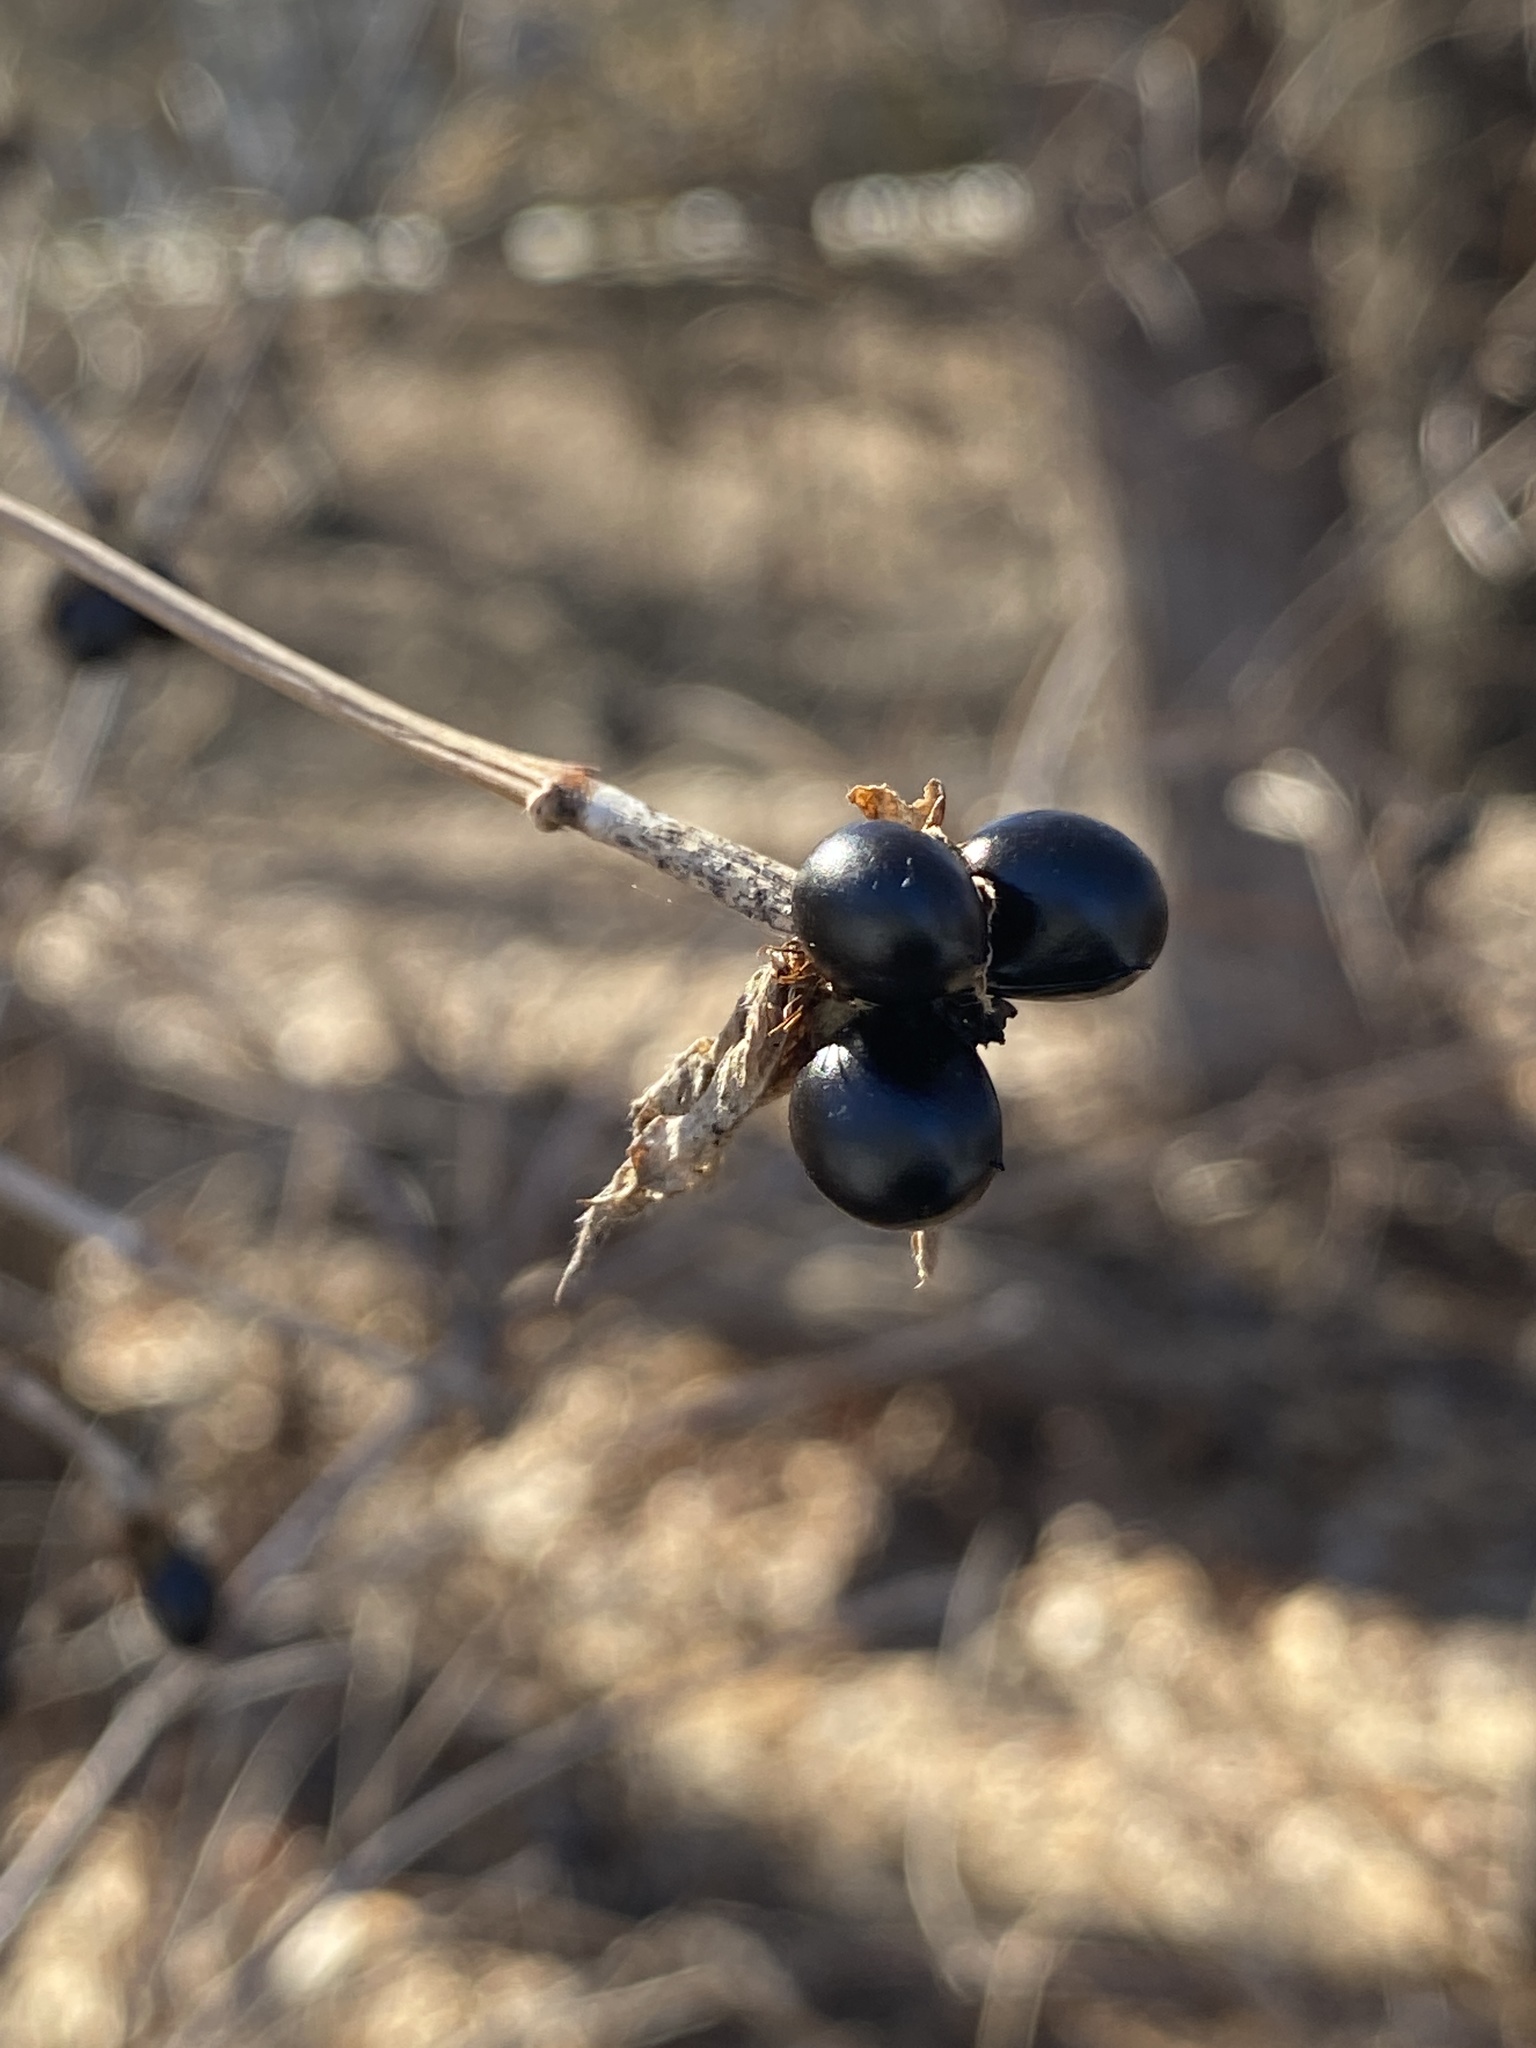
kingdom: Plantae
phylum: Tracheophyta
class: Magnoliopsida
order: Rosales
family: Rosaceae
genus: Rhodotypos
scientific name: Rhodotypos scandens
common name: Jetbead
